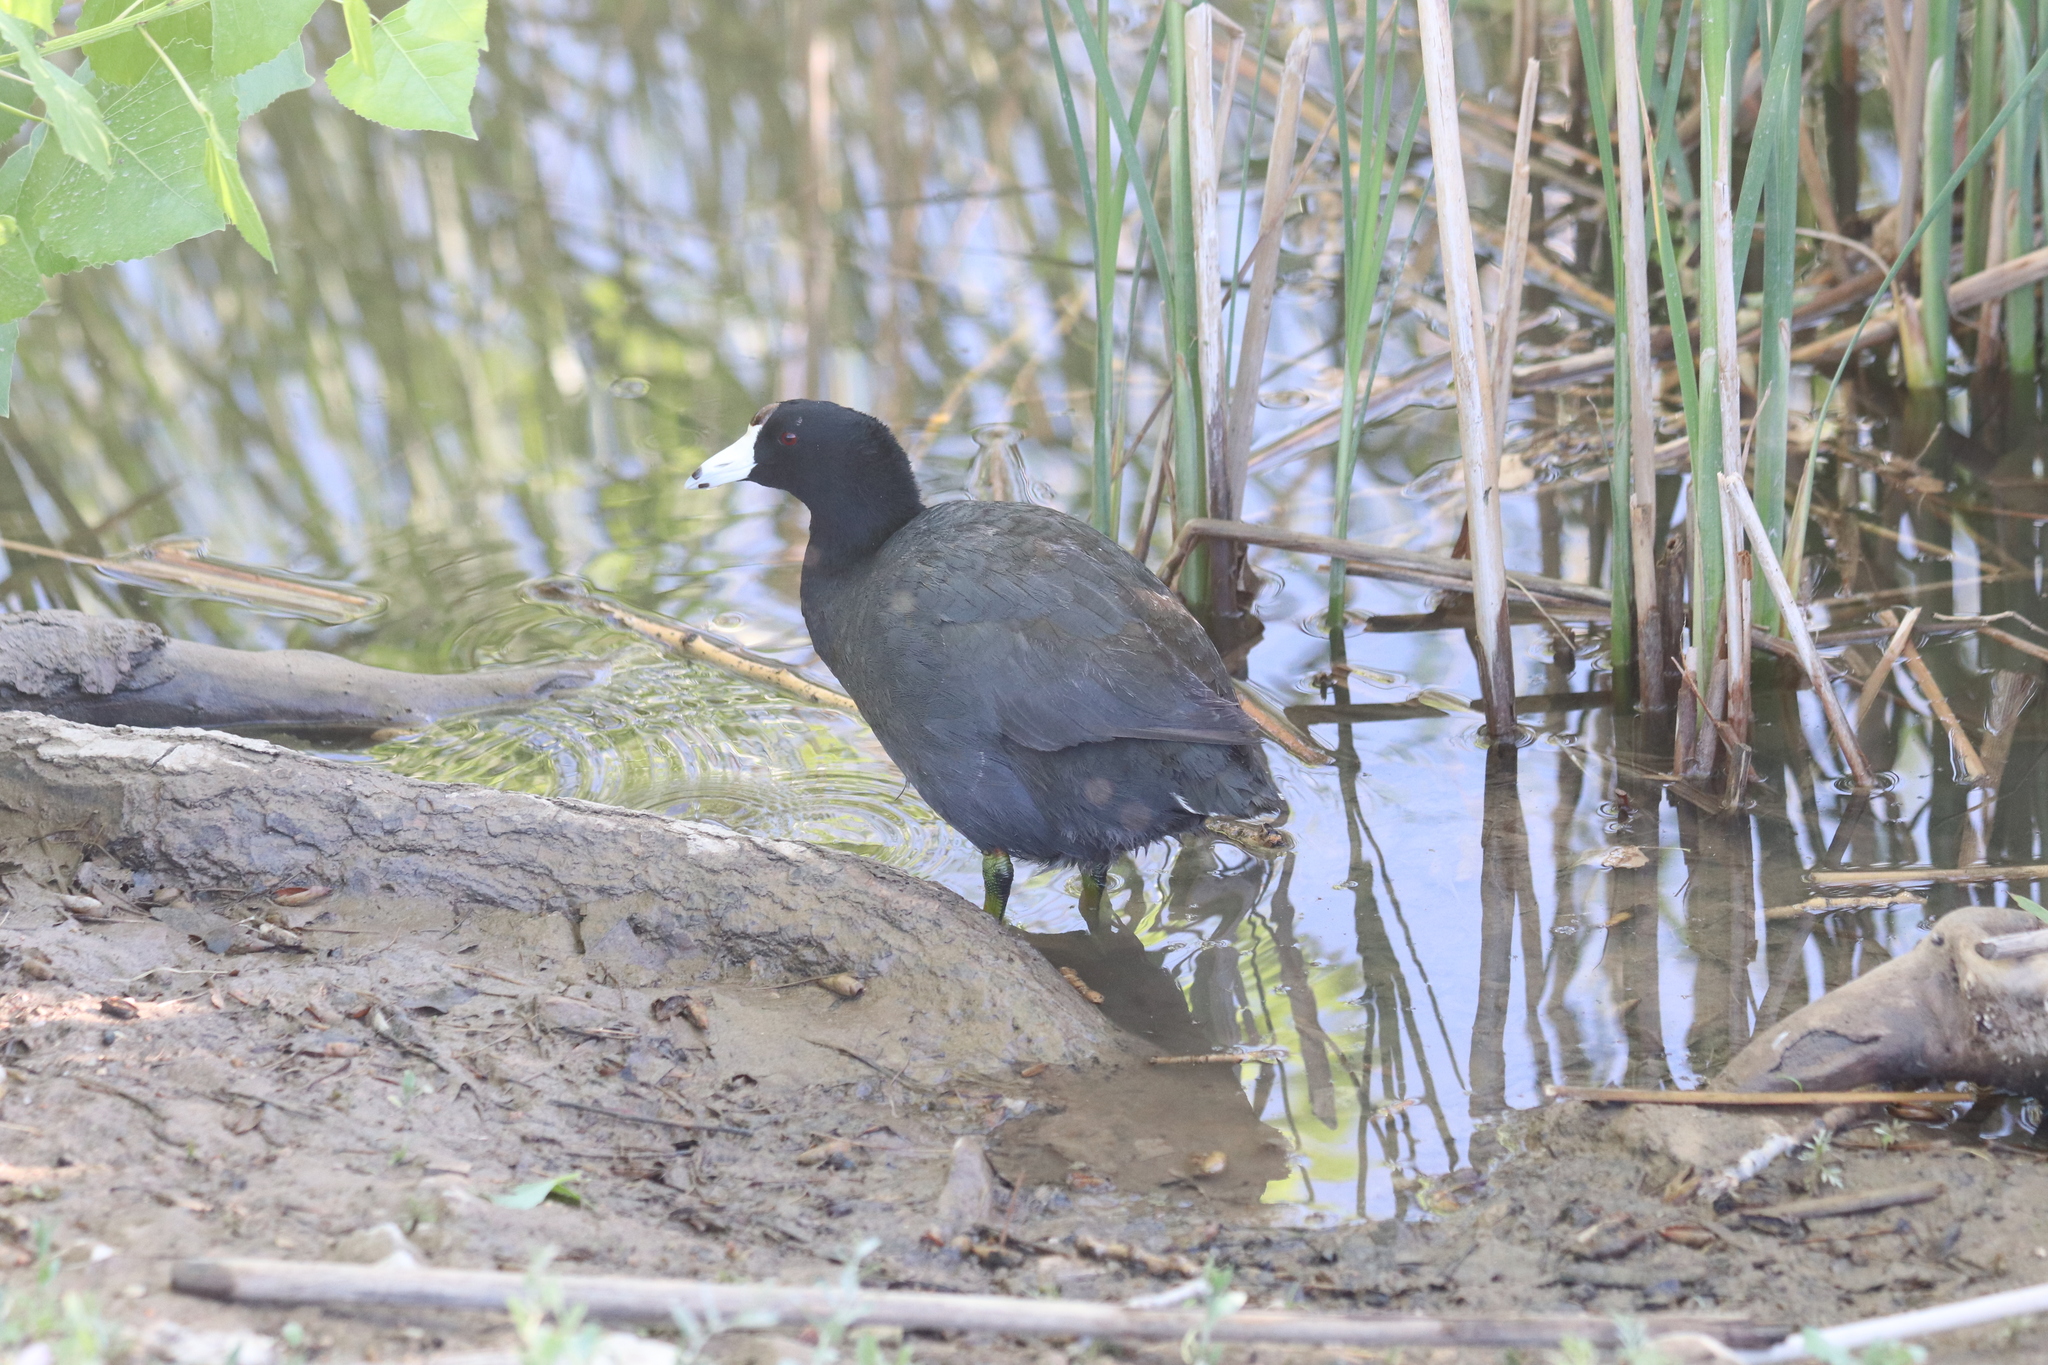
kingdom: Animalia
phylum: Chordata
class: Aves
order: Gruiformes
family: Rallidae
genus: Fulica
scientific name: Fulica americana
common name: American coot
